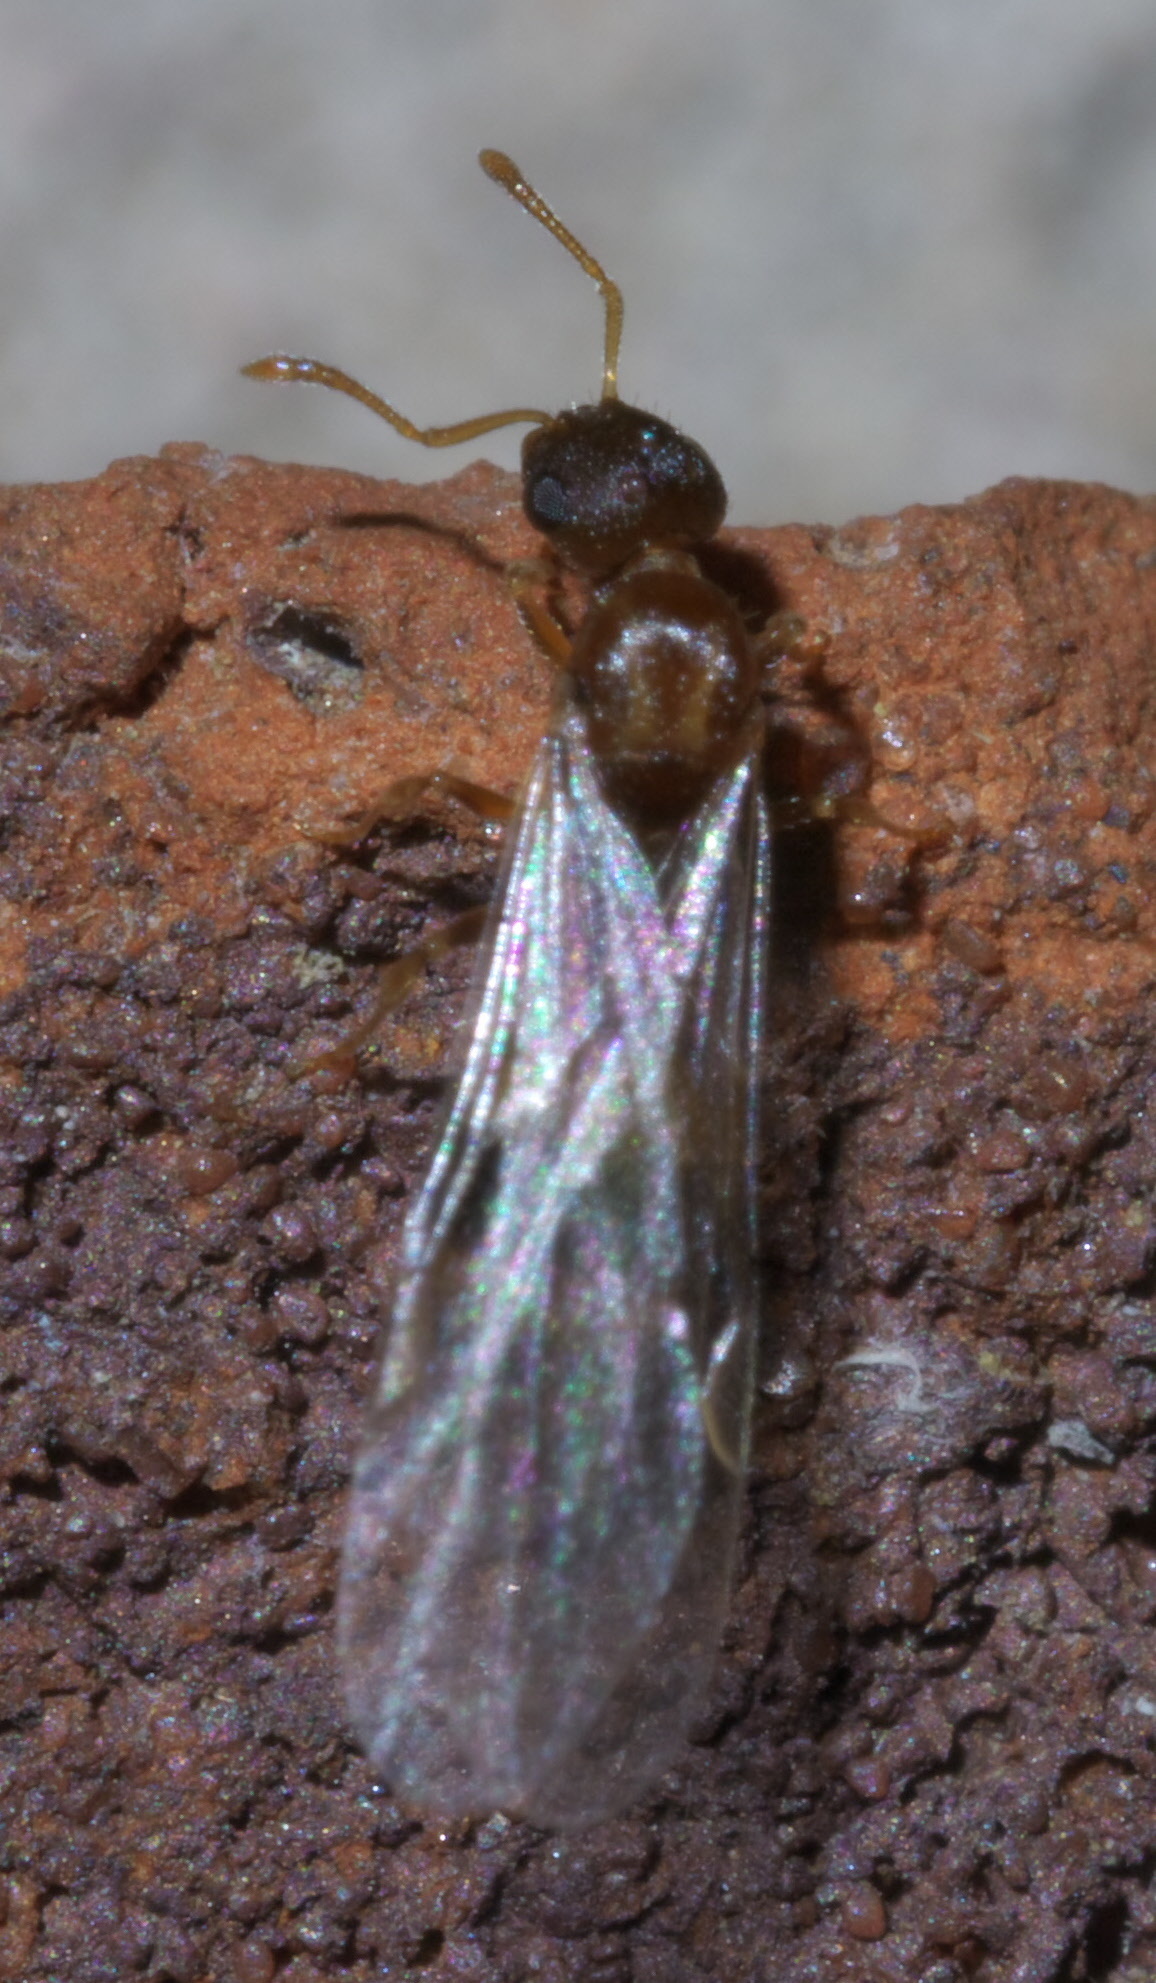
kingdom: Animalia
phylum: Arthropoda
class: Insecta
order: Hymenoptera
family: Formicidae
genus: Temnothorax
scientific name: Temnothorax curvispinosus
